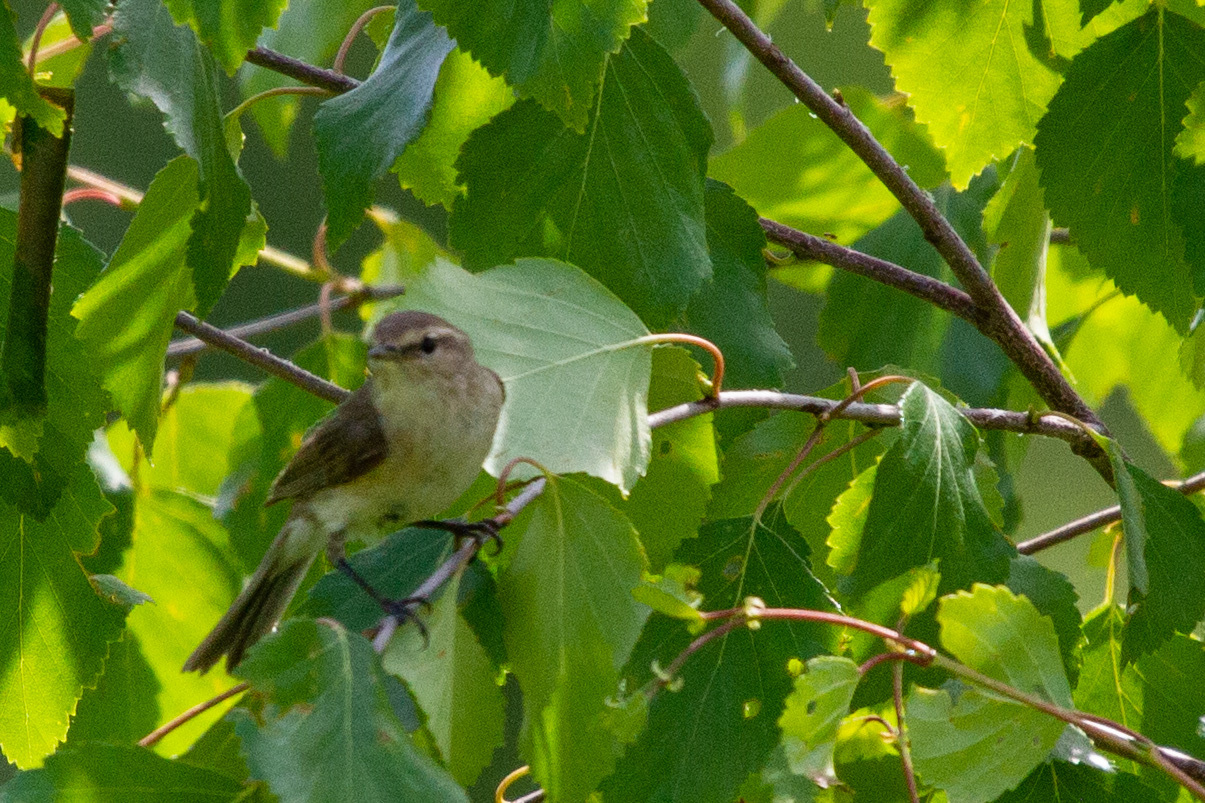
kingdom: Animalia
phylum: Chordata
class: Aves
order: Passeriformes
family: Phylloscopidae
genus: Phylloscopus
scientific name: Phylloscopus collybita
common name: Common chiffchaff
